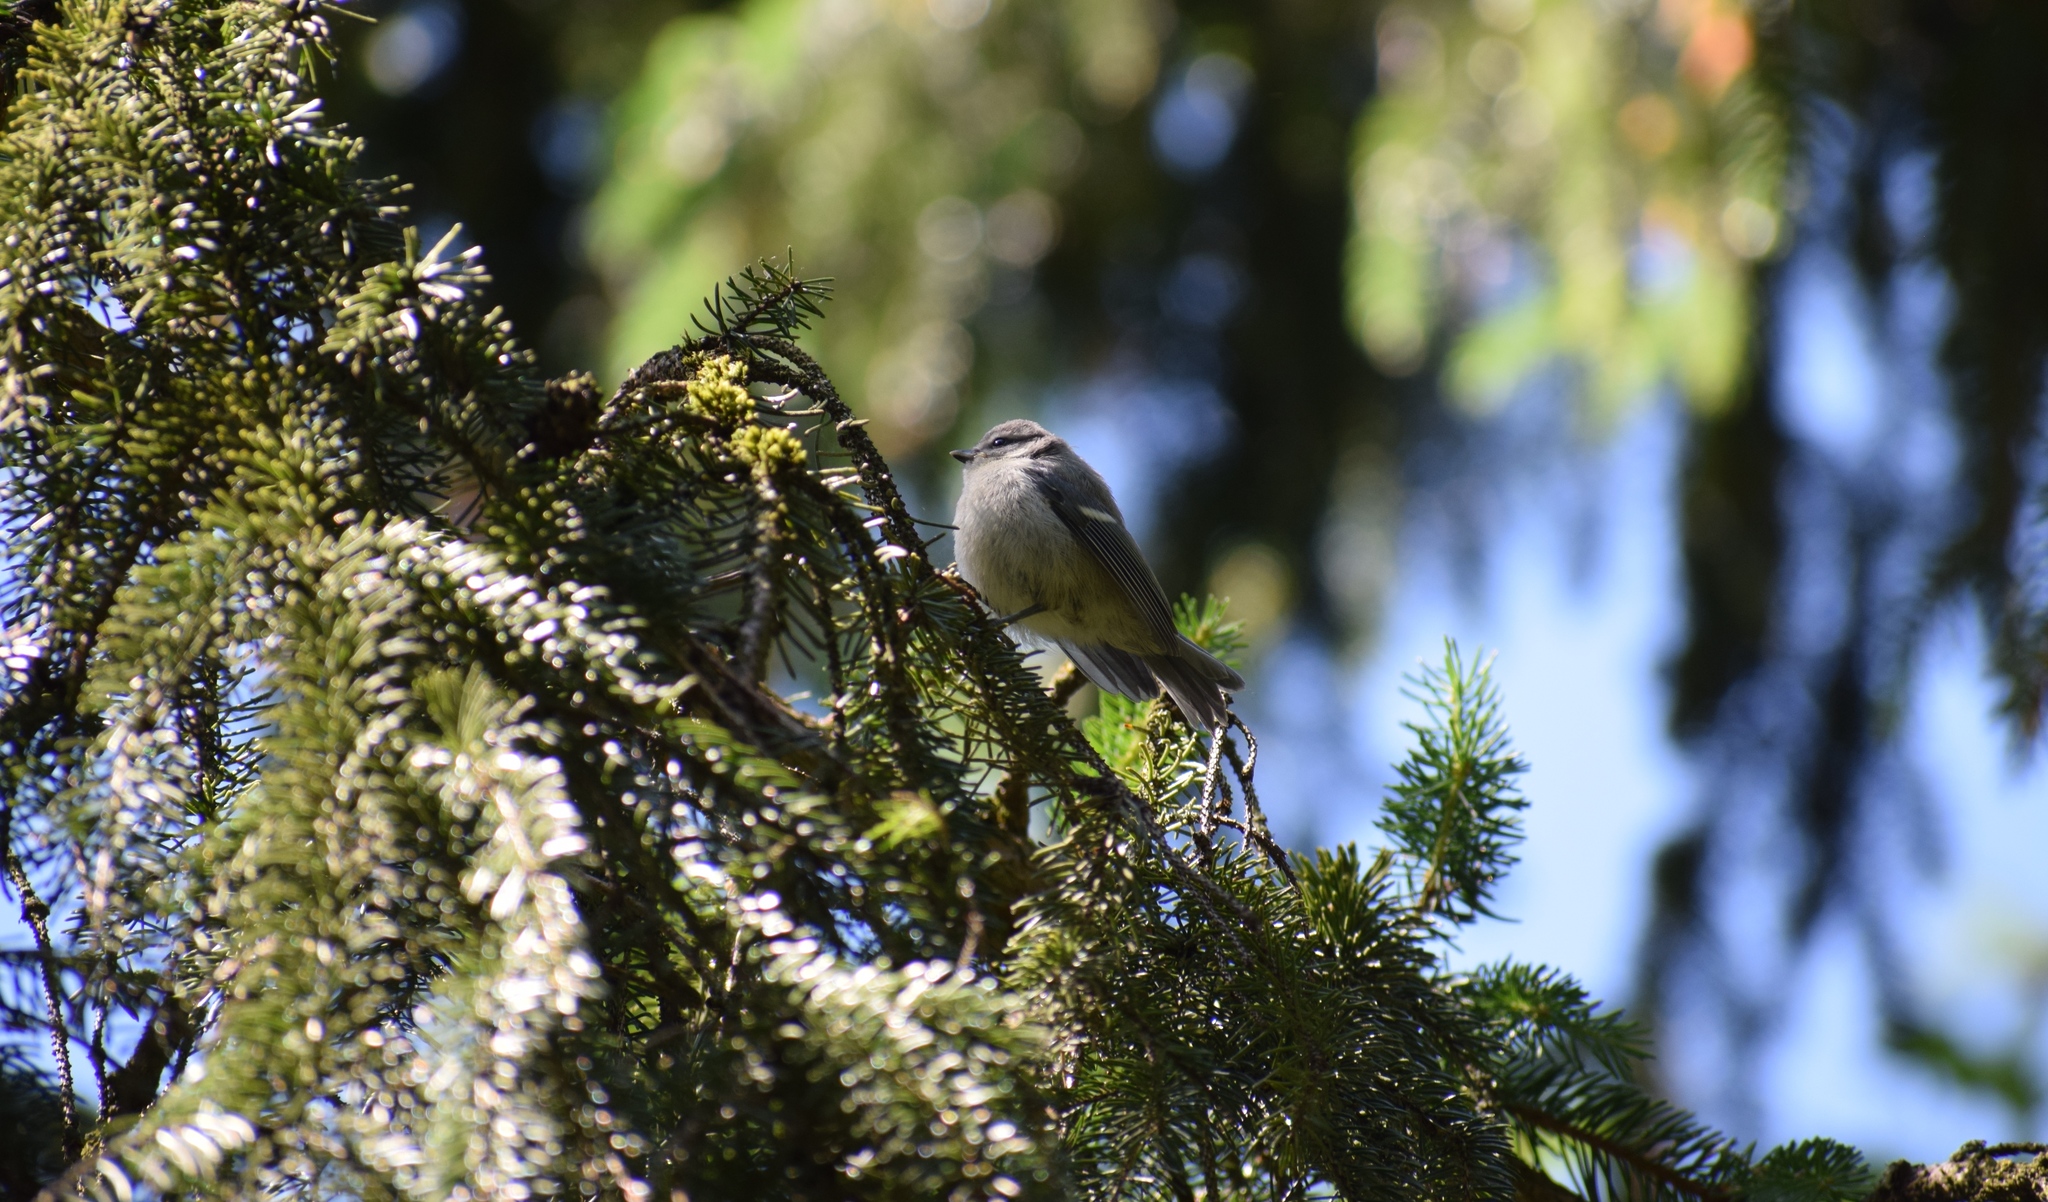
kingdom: Animalia
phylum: Chordata
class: Aves
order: Passeriformes
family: Paridae
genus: Cyanistes
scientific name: Cyanistes caeruleus
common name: Eurasian blue tit
